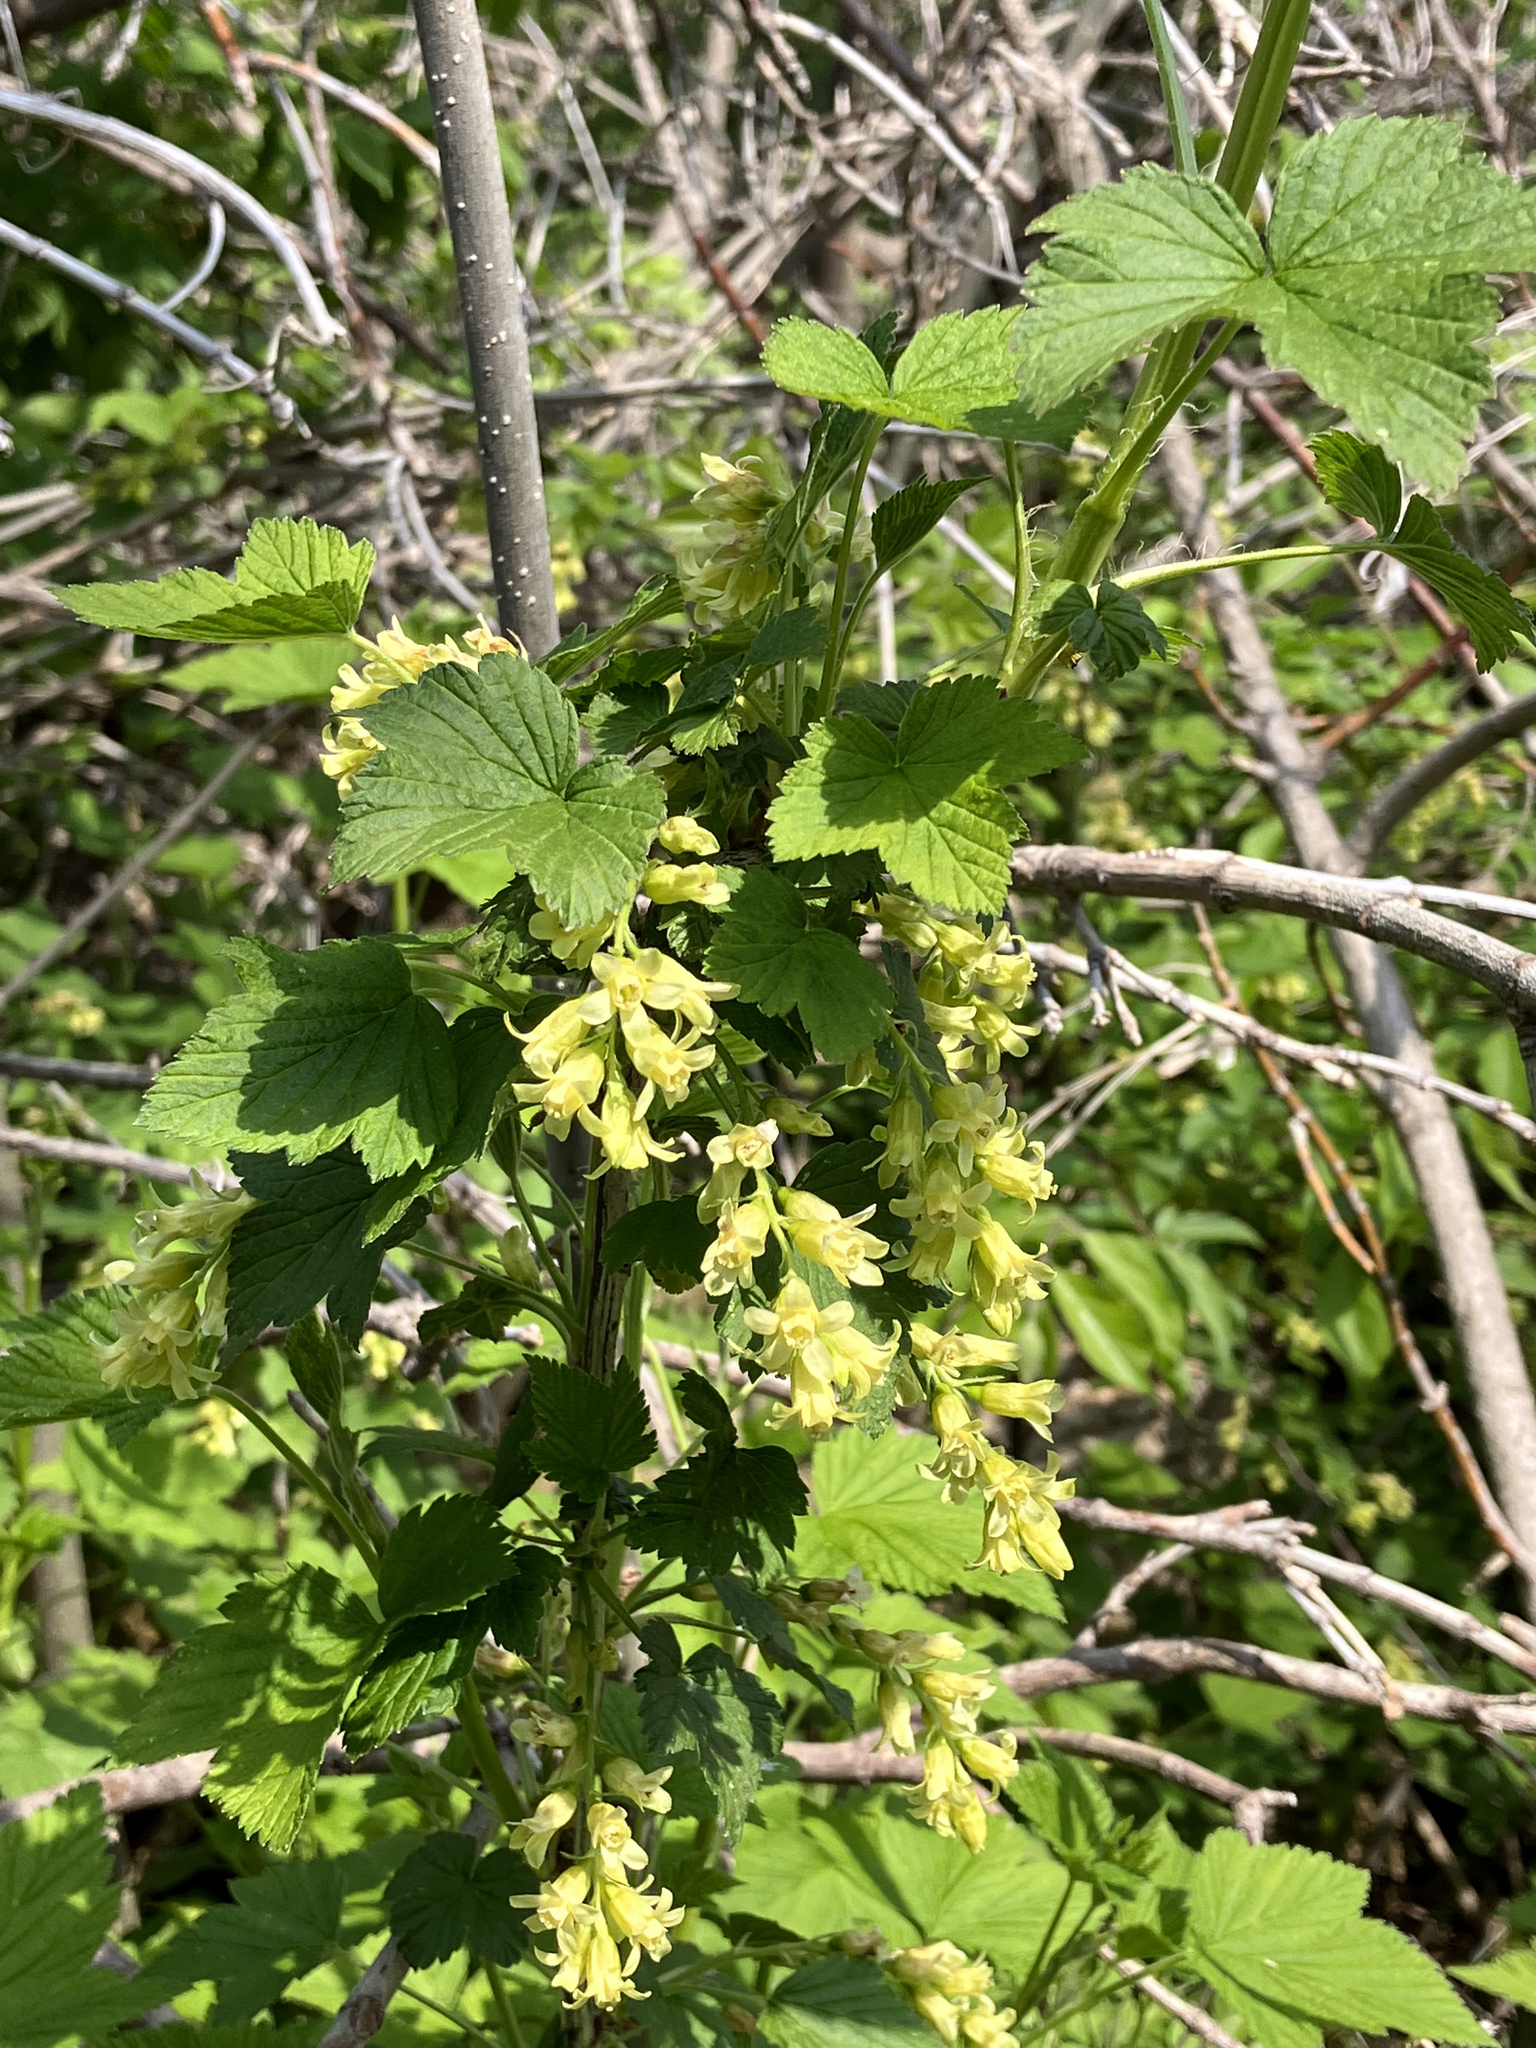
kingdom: Plantae
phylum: Tracheophyta
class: Magnoliopsida
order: Saxifragales
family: Grossulariaceae
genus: Ribes
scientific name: Ribes americanum
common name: American black currant
